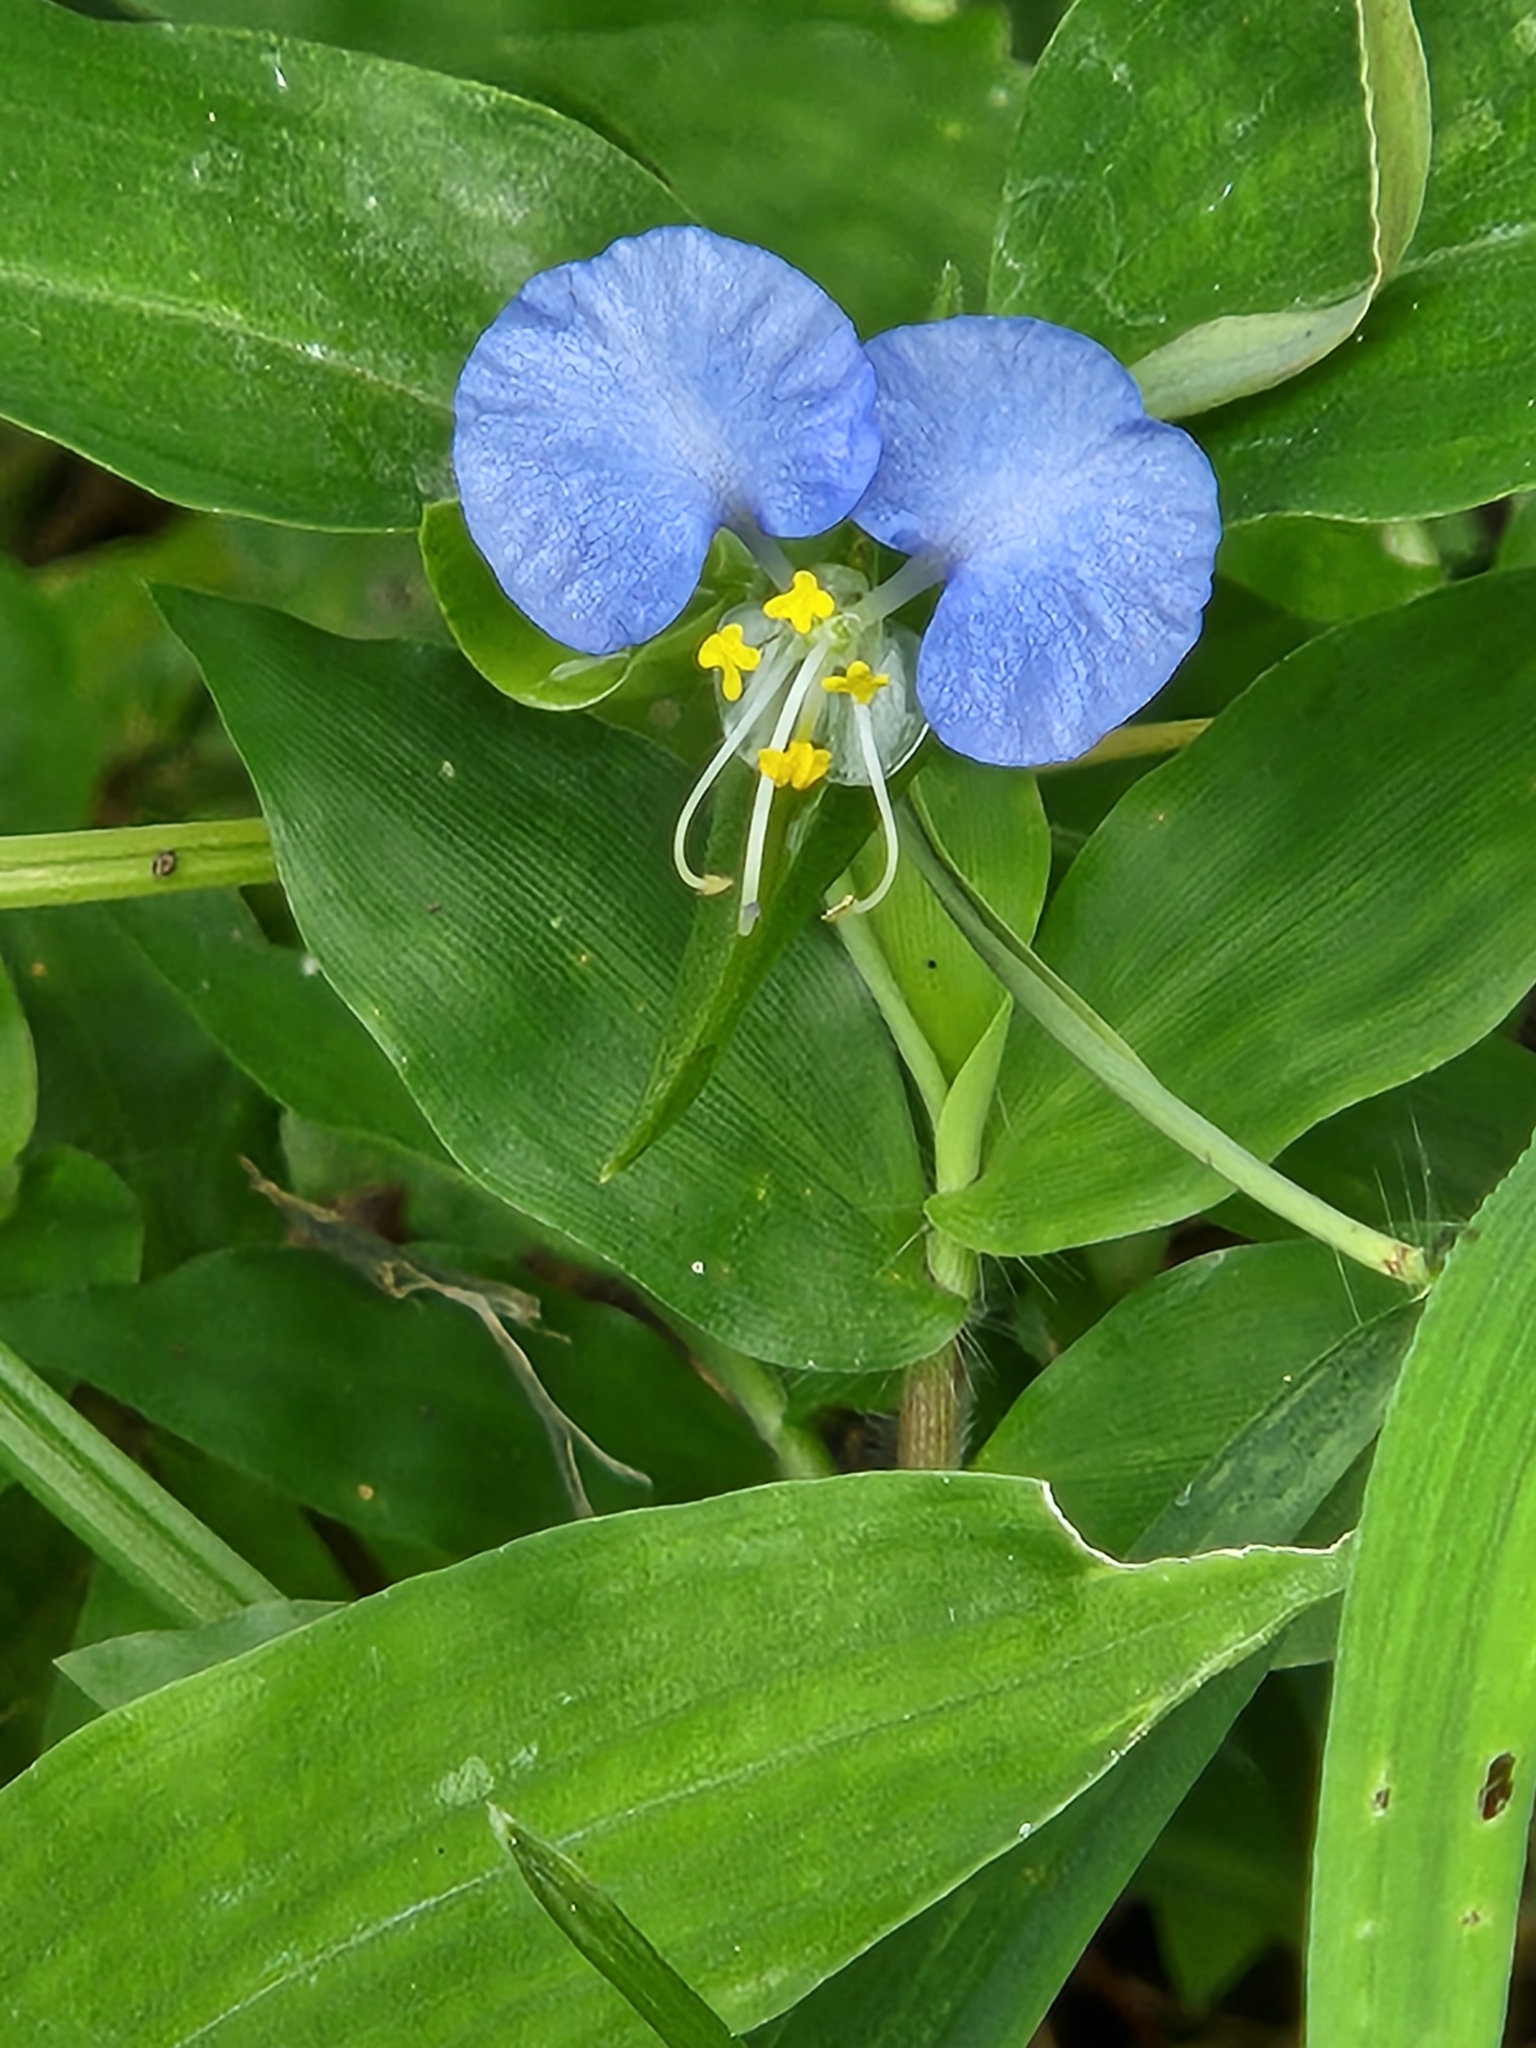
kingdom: Plantae
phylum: Tracheophyta
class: Liliopsida
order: Commelinales
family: Commelinaceae
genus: Commelina
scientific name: Commelina erecta
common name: Blousel blommetjie
